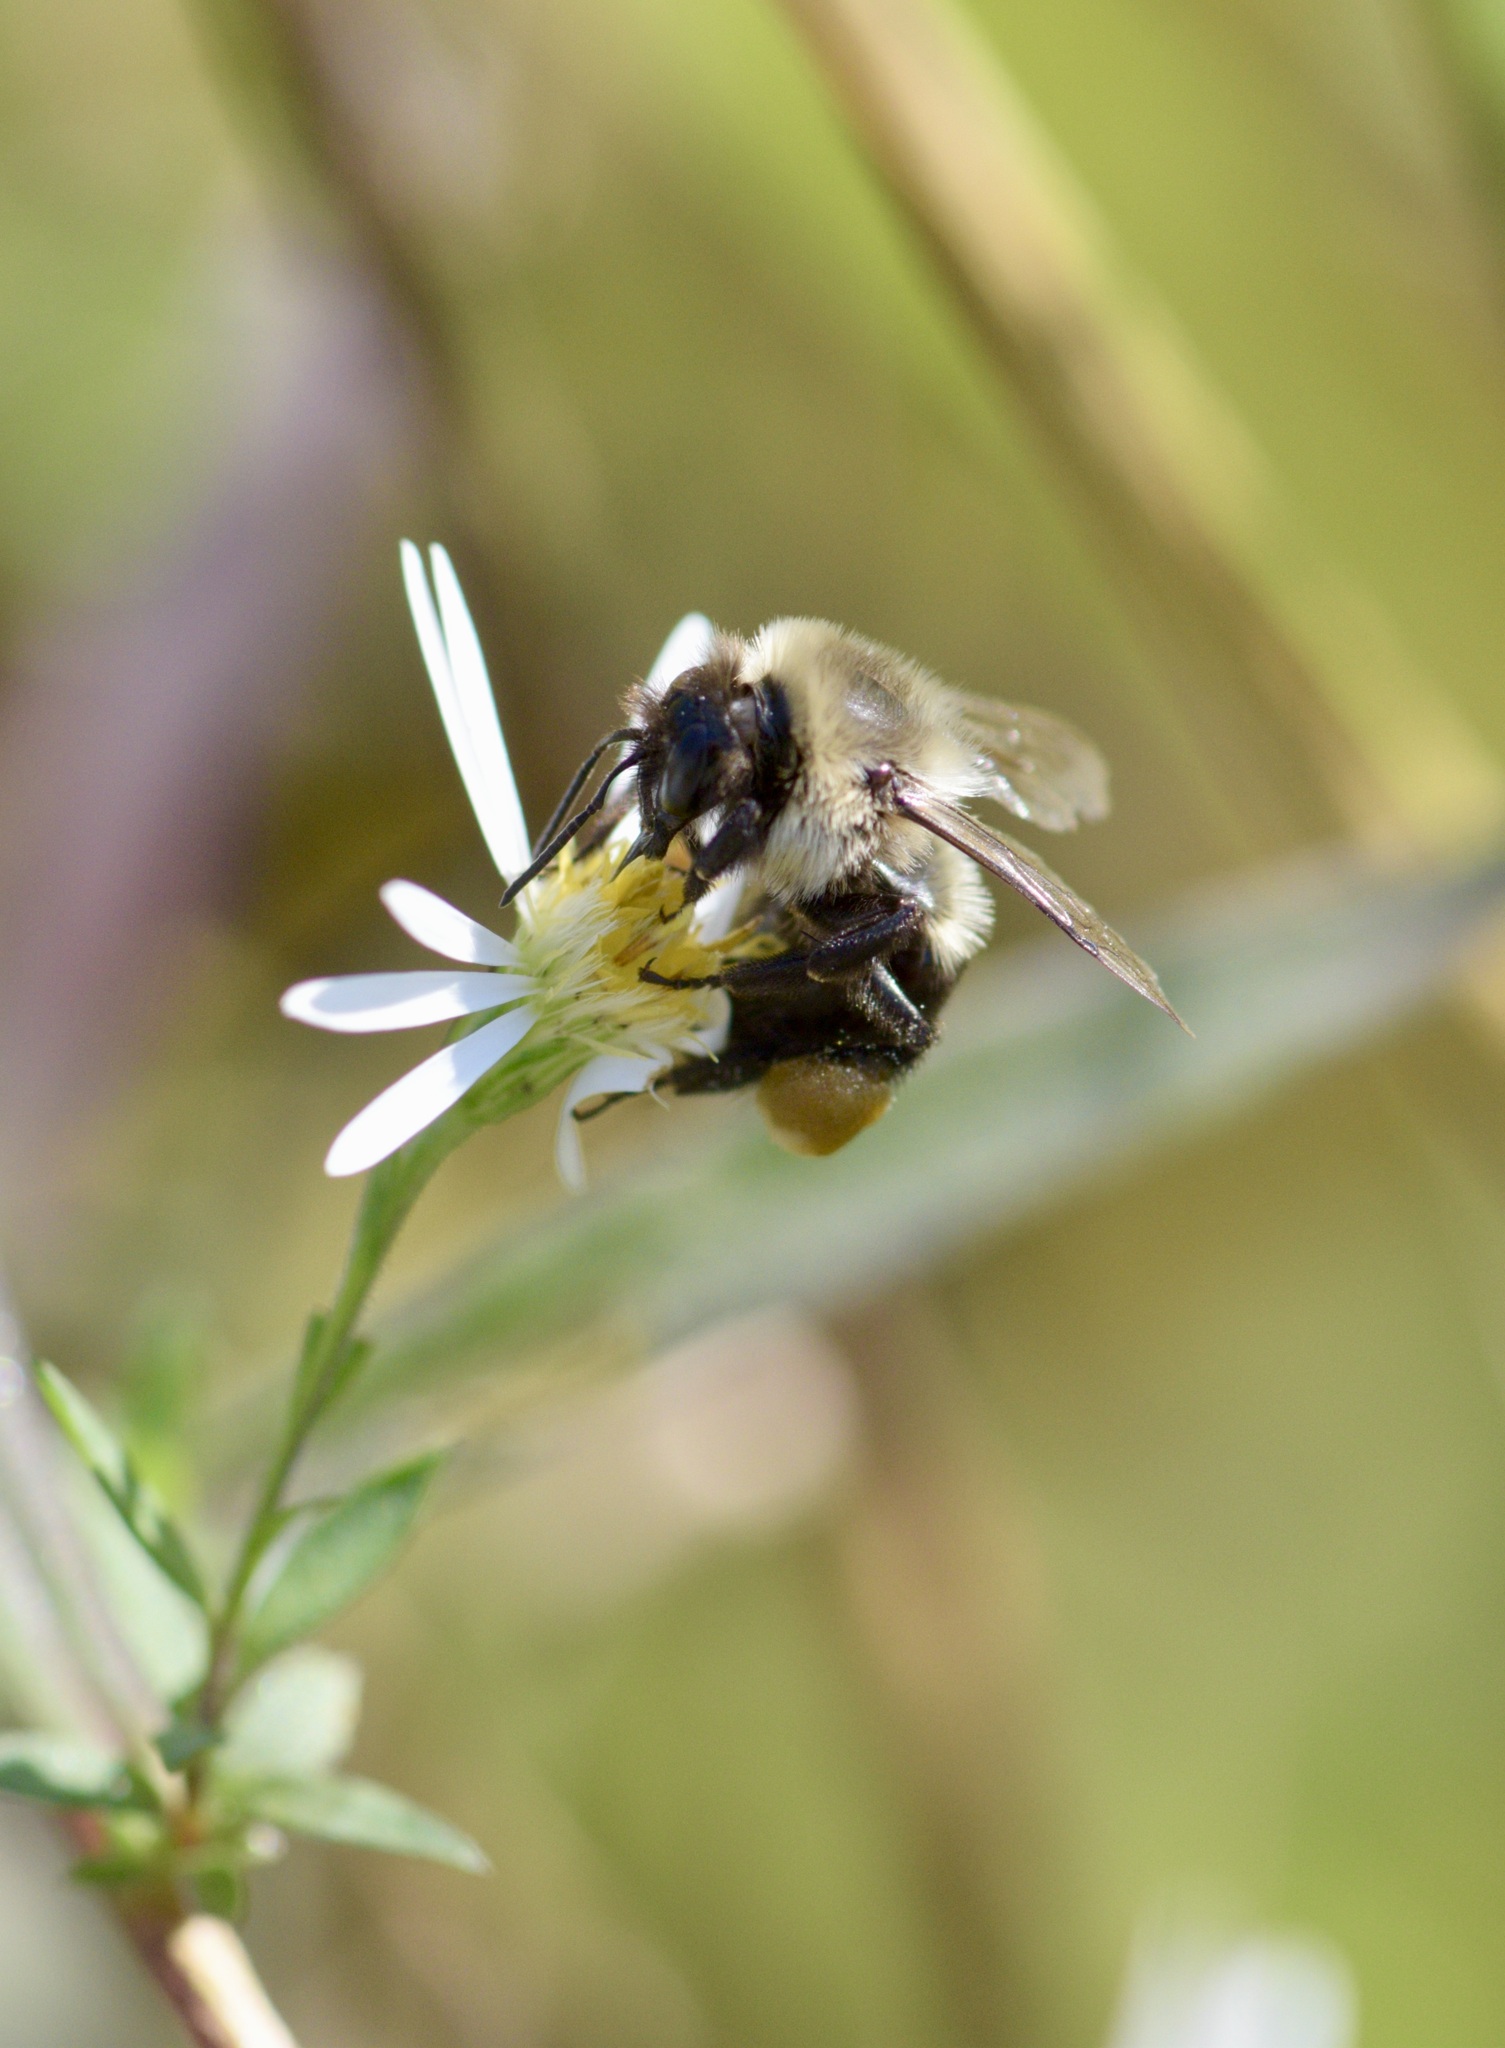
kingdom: Animalia
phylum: Arthropoda
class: Insecta
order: Hymenoptera
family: Apidae
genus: Bombus
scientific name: Bombus impatiens
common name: Common eastern bumble bee
